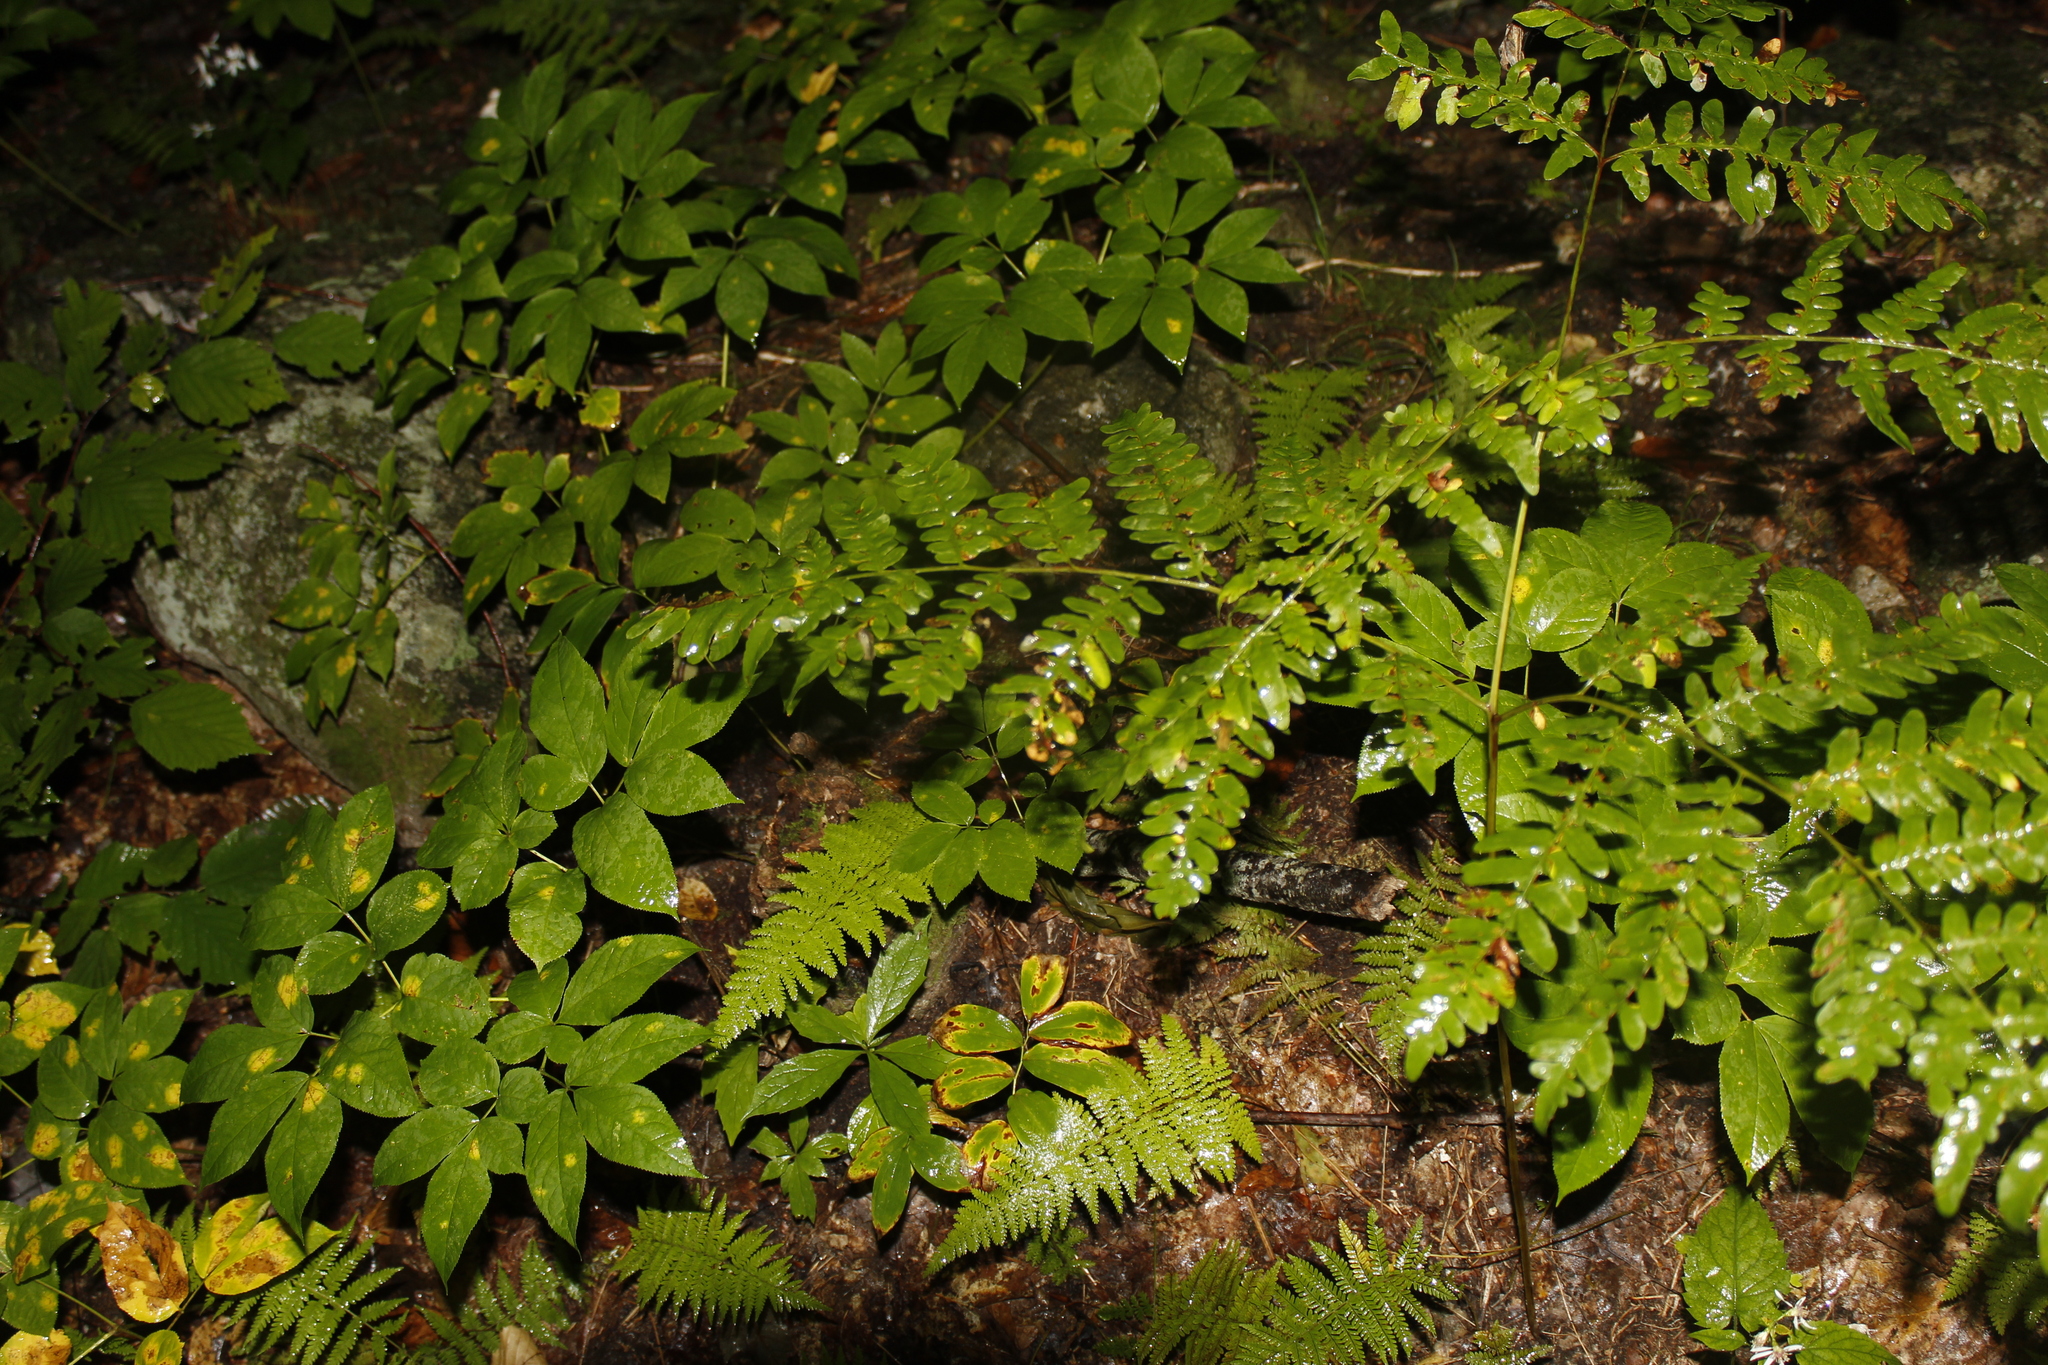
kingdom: Plantae
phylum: Tracheophyta
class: Polypodiopsida
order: Polypodiales
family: Dennstaedtiaceae
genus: Pteridium
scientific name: Pteridium aquilinum
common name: Bracken
